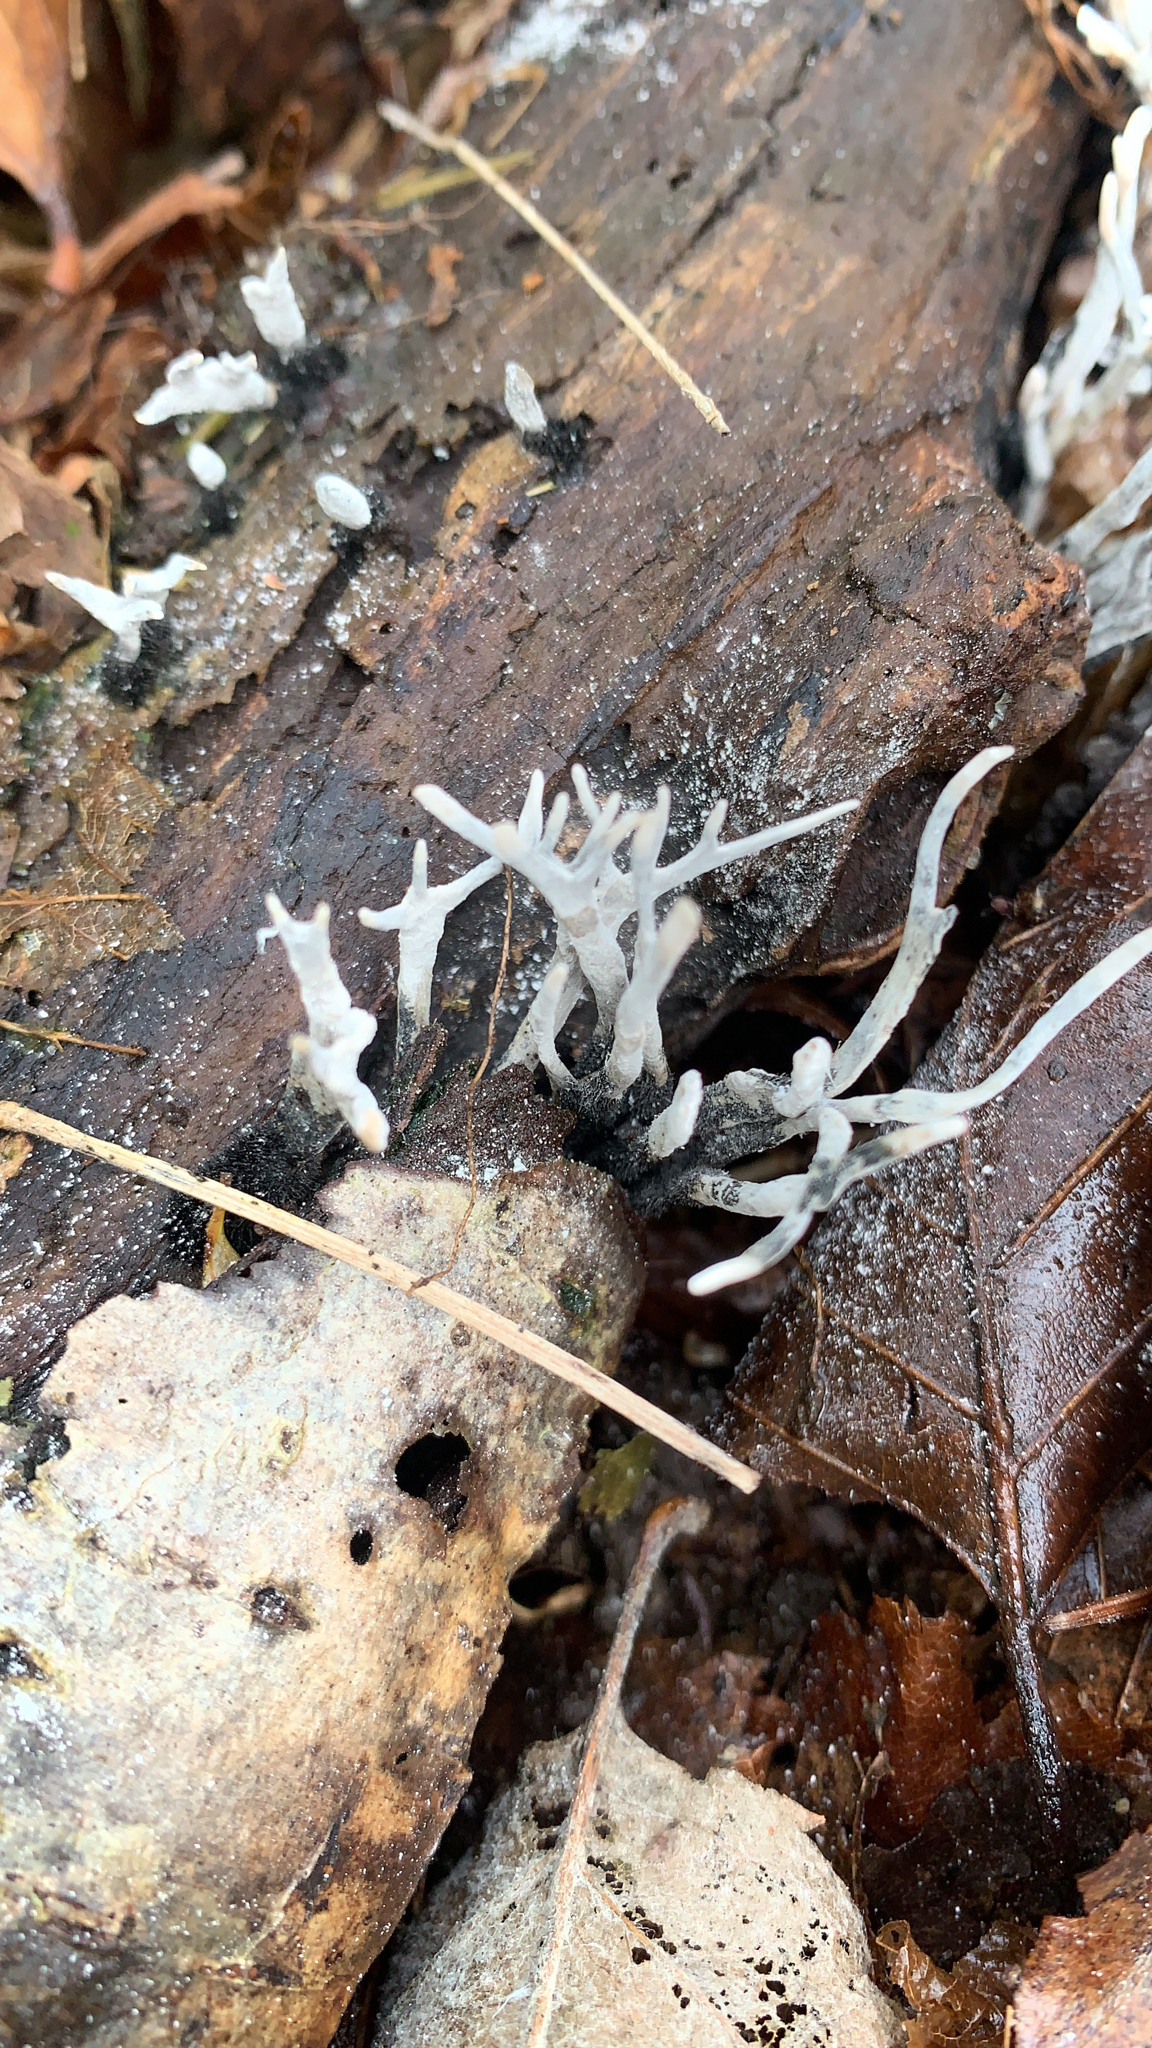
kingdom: Fungi
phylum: Ascomycota
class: Sordariomycetes
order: Xylariales
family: Xylariaceae
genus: Xylaria
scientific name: Xylaria hypoxylon
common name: Candle-snuff fungus
